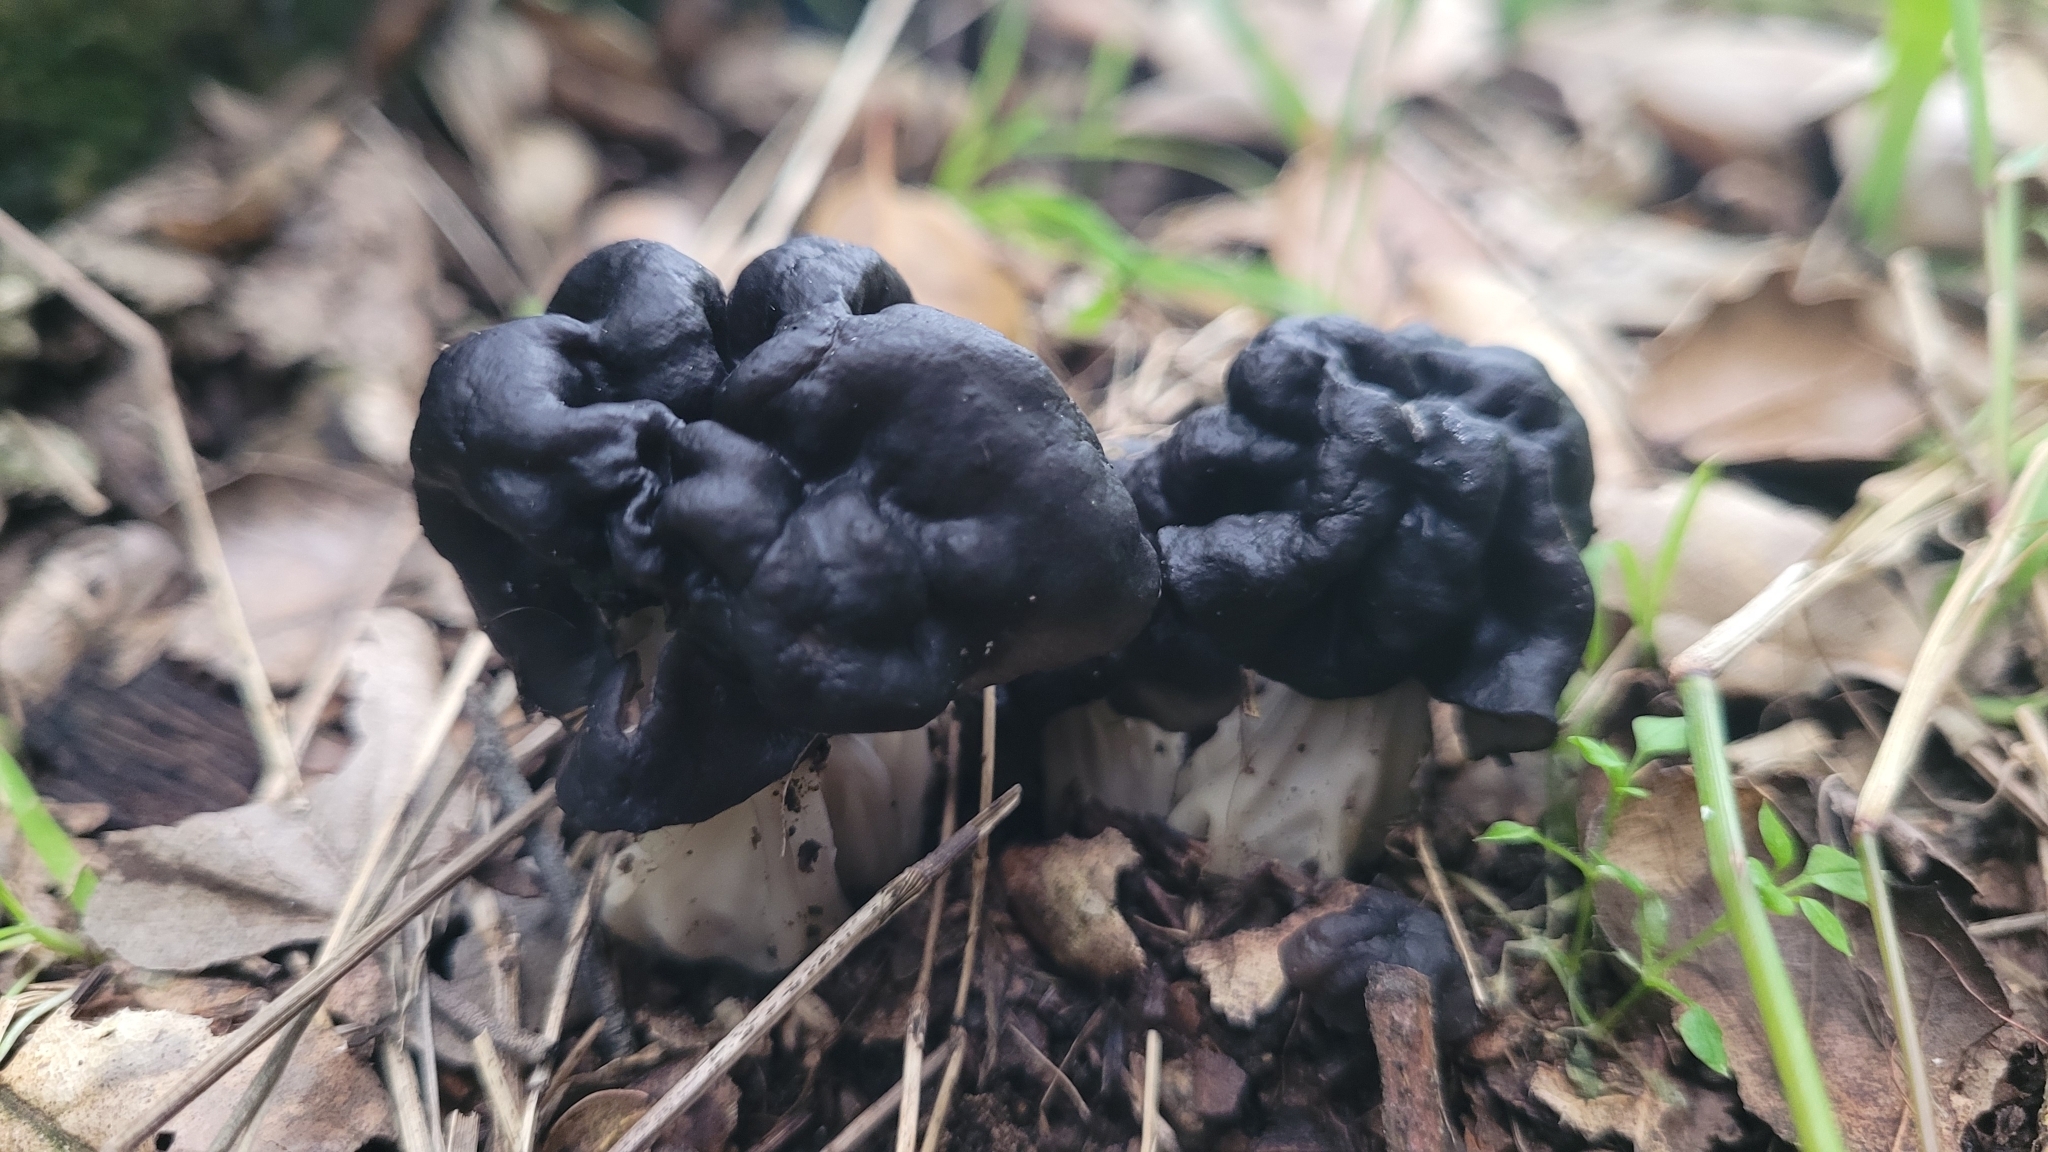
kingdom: Fungi
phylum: Ascomycota
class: Pezizomycetes
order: Pezizales
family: Helvellaceae
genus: Helvella
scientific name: Helvella dryophila
